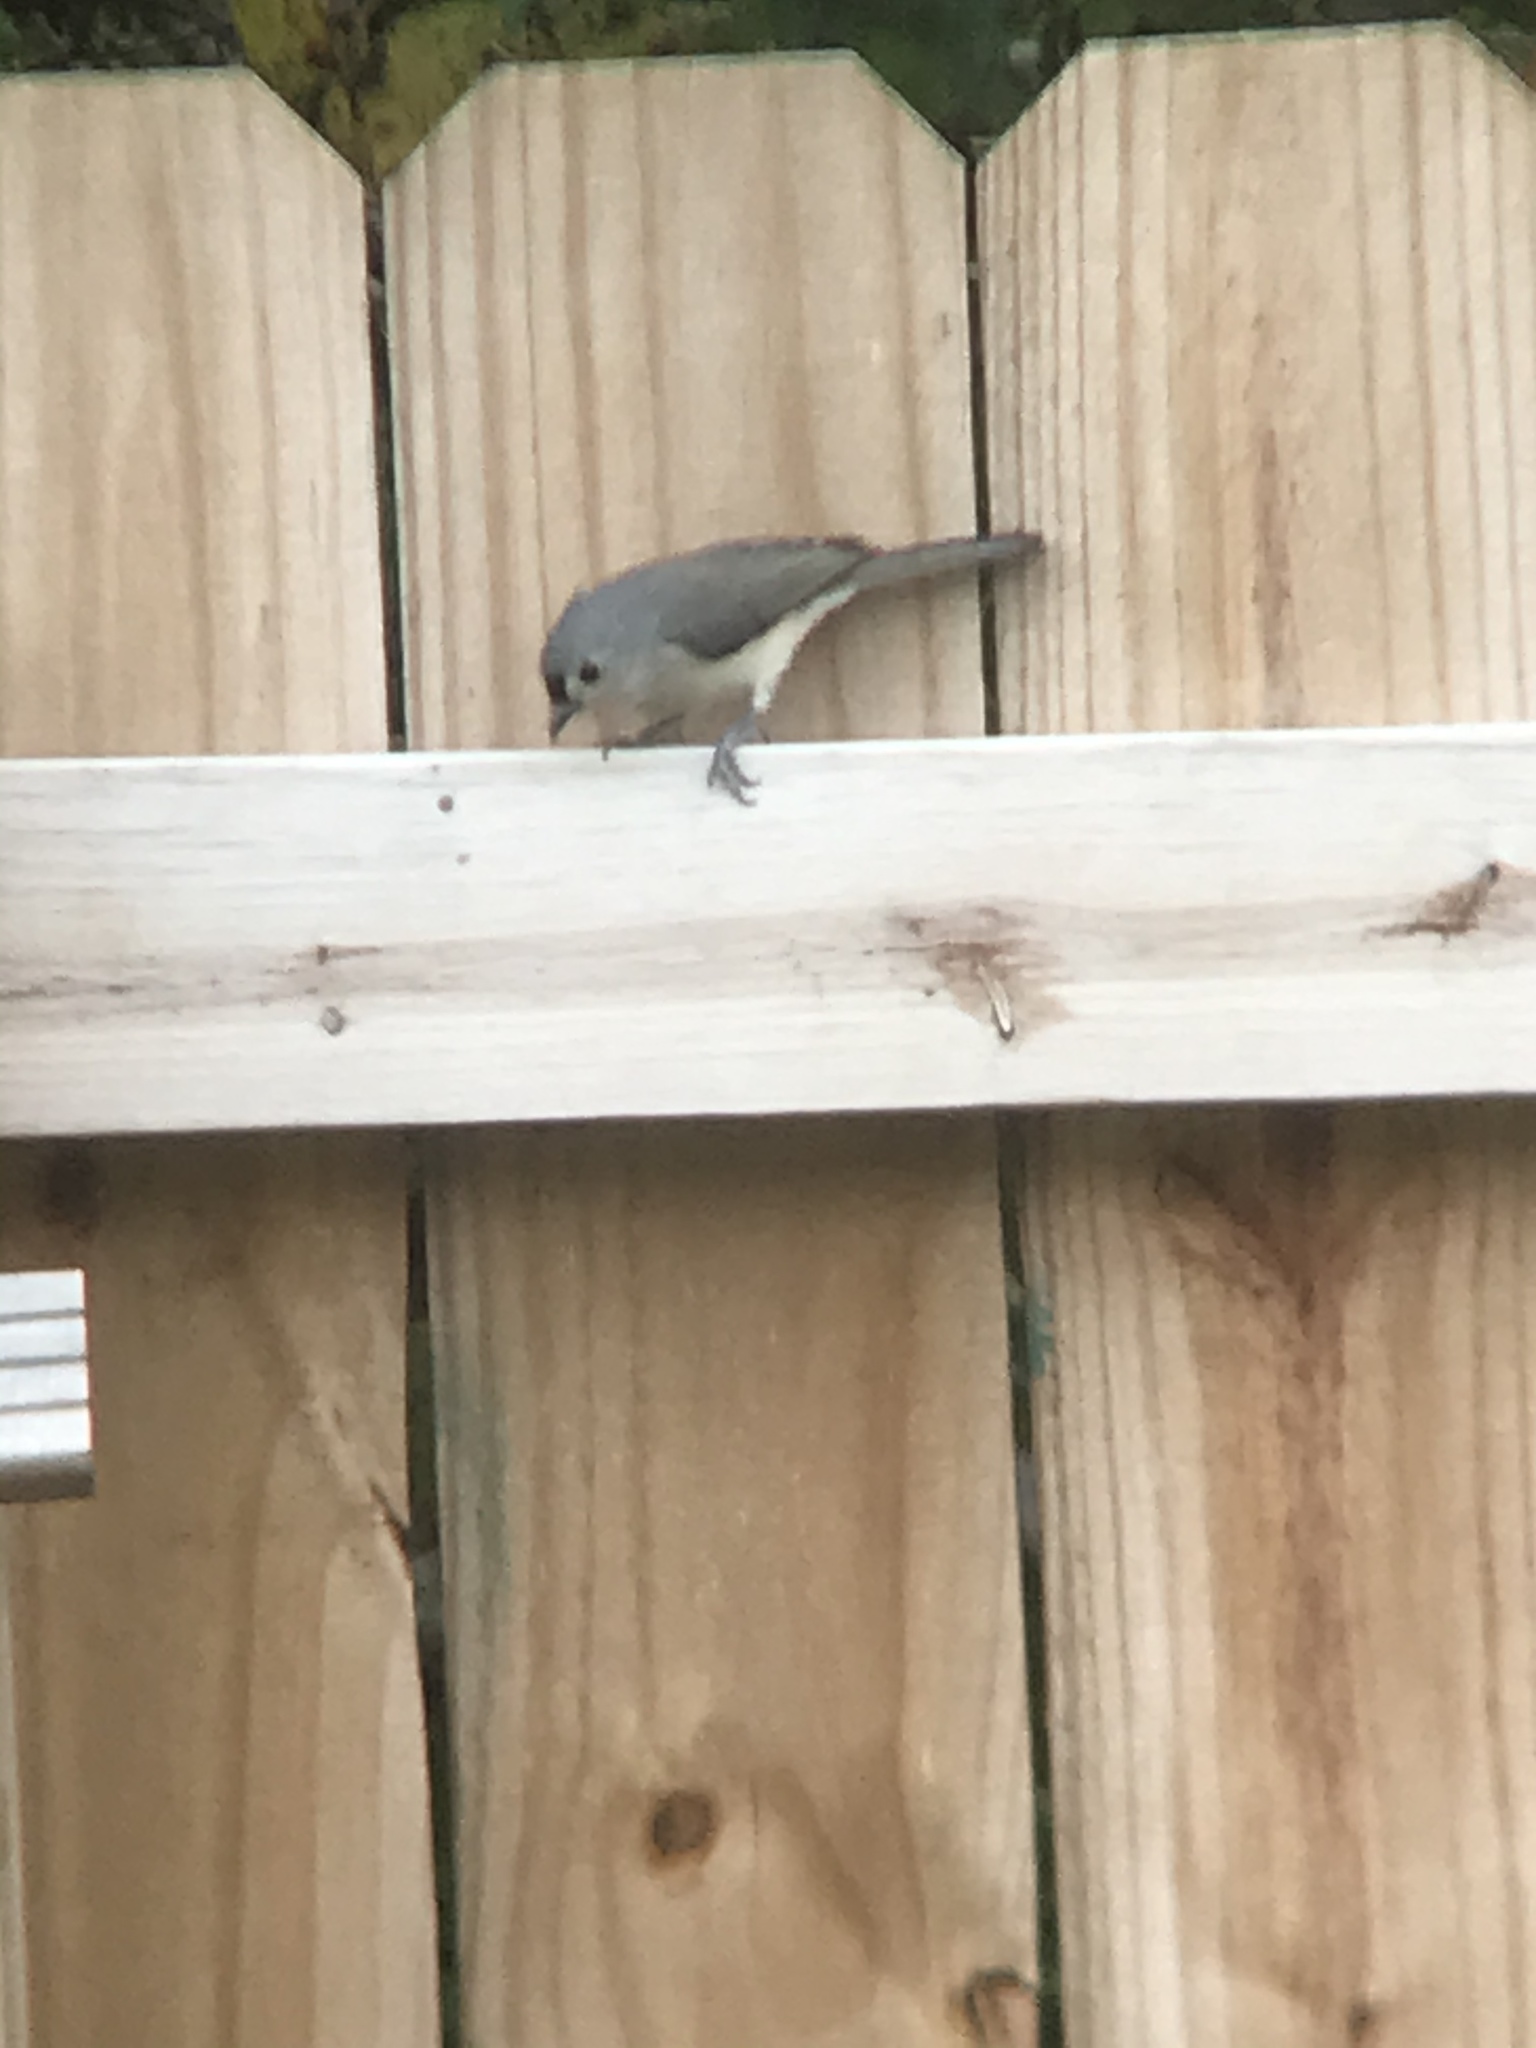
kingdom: Animalia
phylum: Chordata
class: Aves
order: Passeriformes
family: Paridae
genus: Baeolophus
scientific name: Baeolophus bicolor
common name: Tufted titmouse
